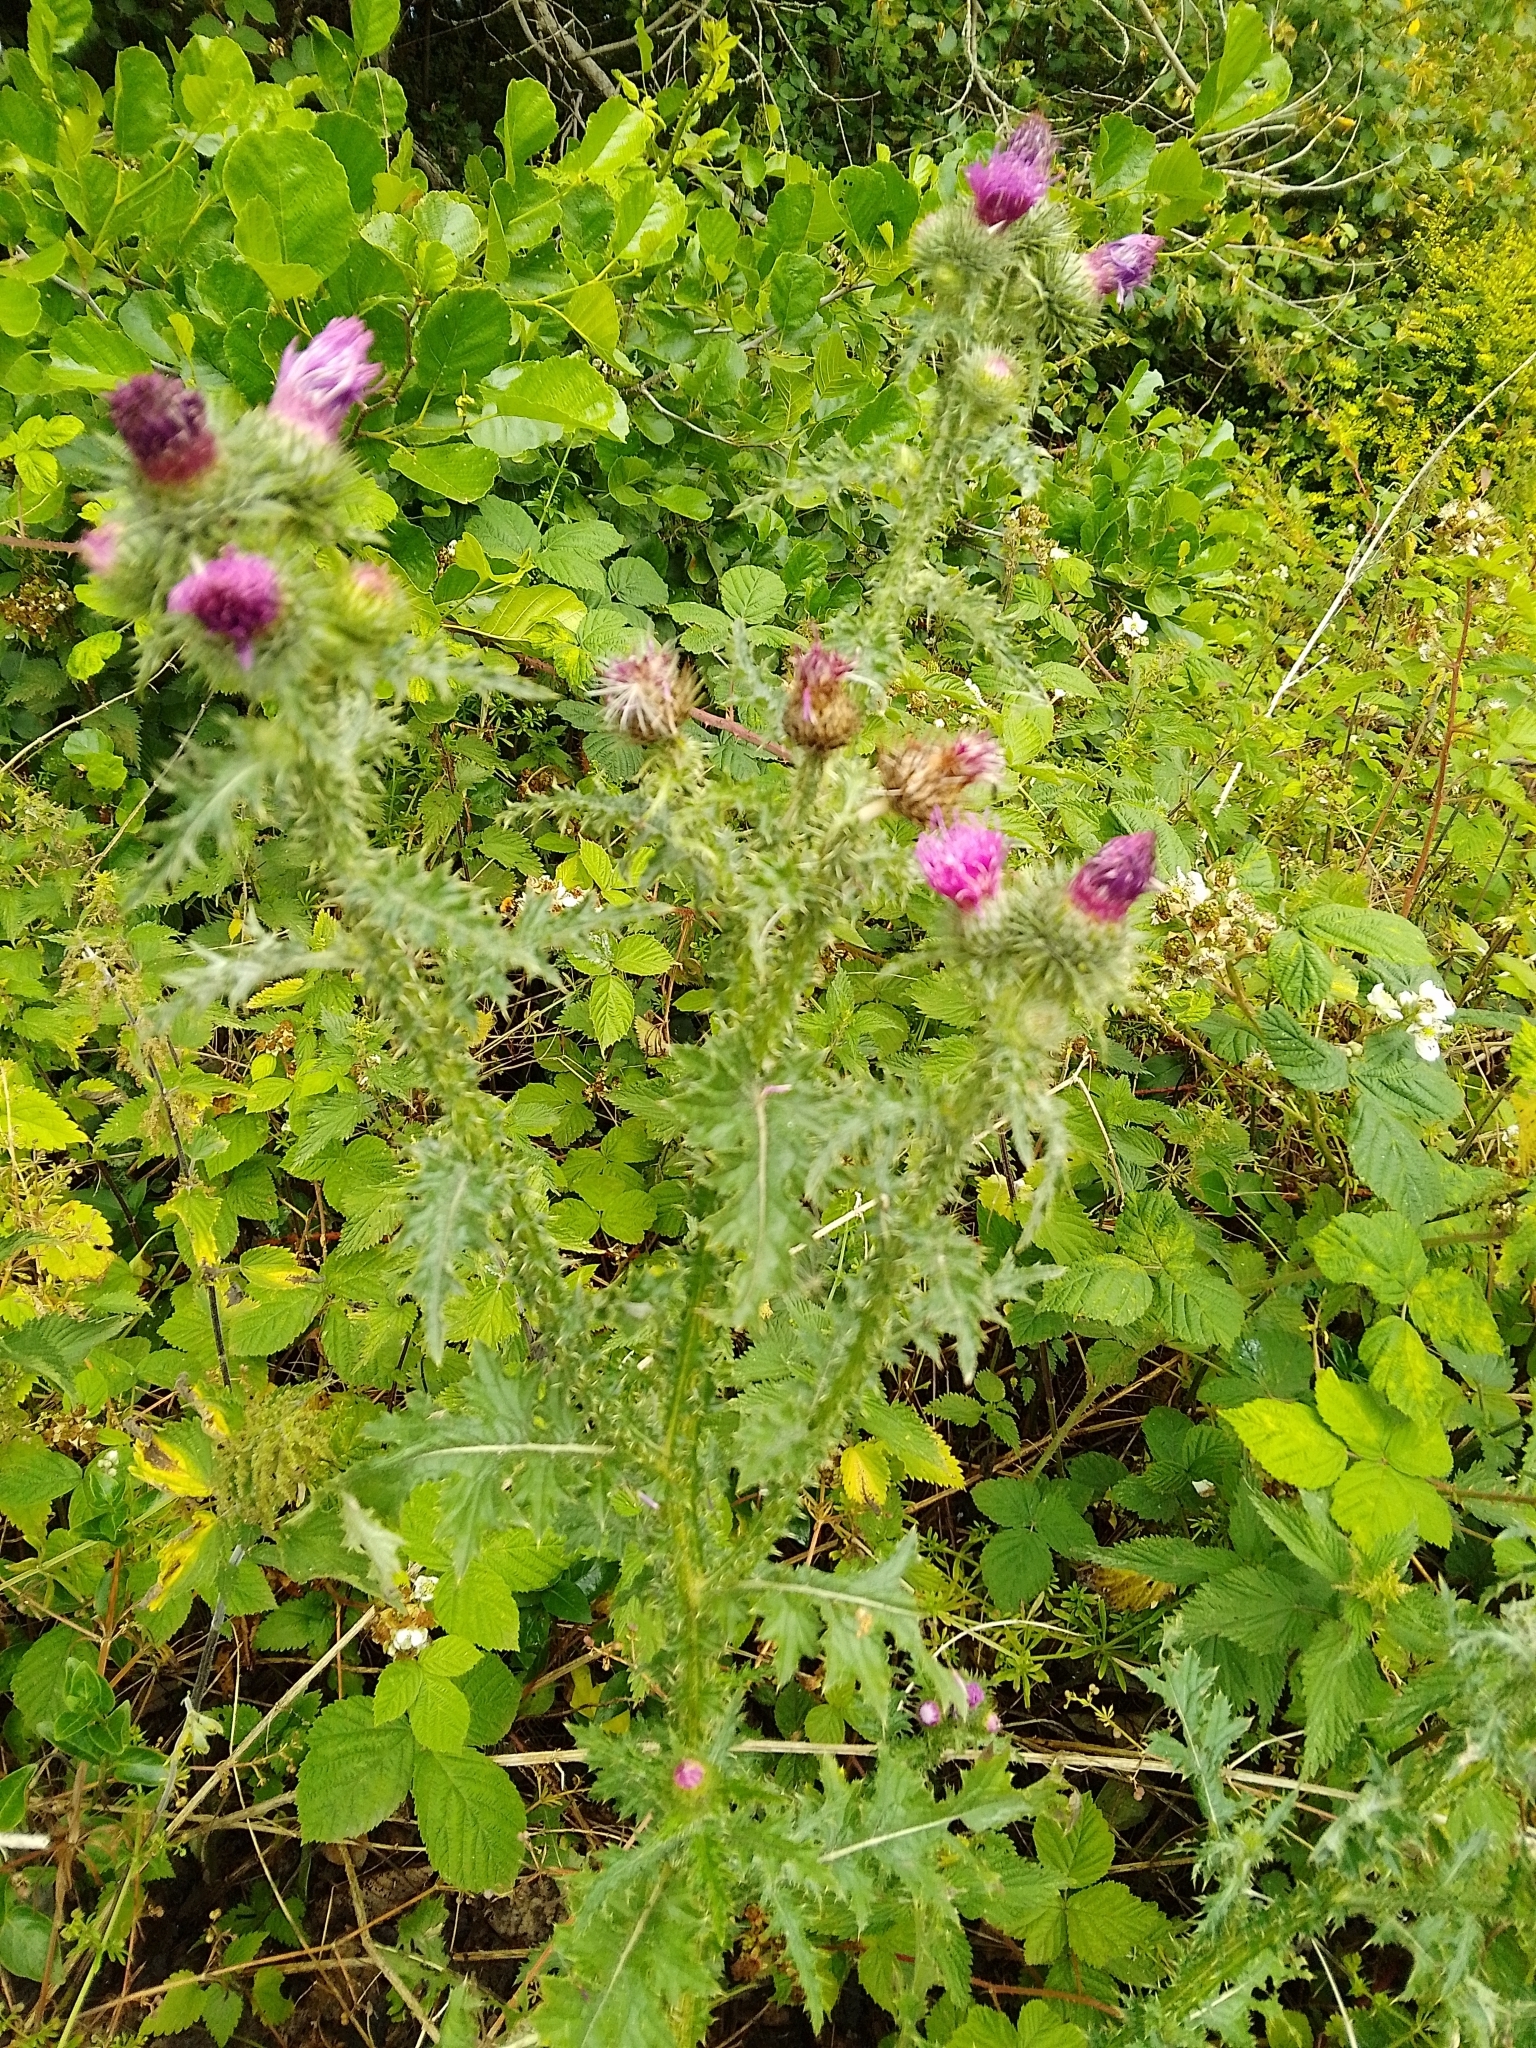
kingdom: Plantae
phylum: Tracheophyta
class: Magnoliopsida
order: Asterales
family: Asteraceae
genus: Carduus
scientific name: Carduus crispus
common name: Welted thistle
